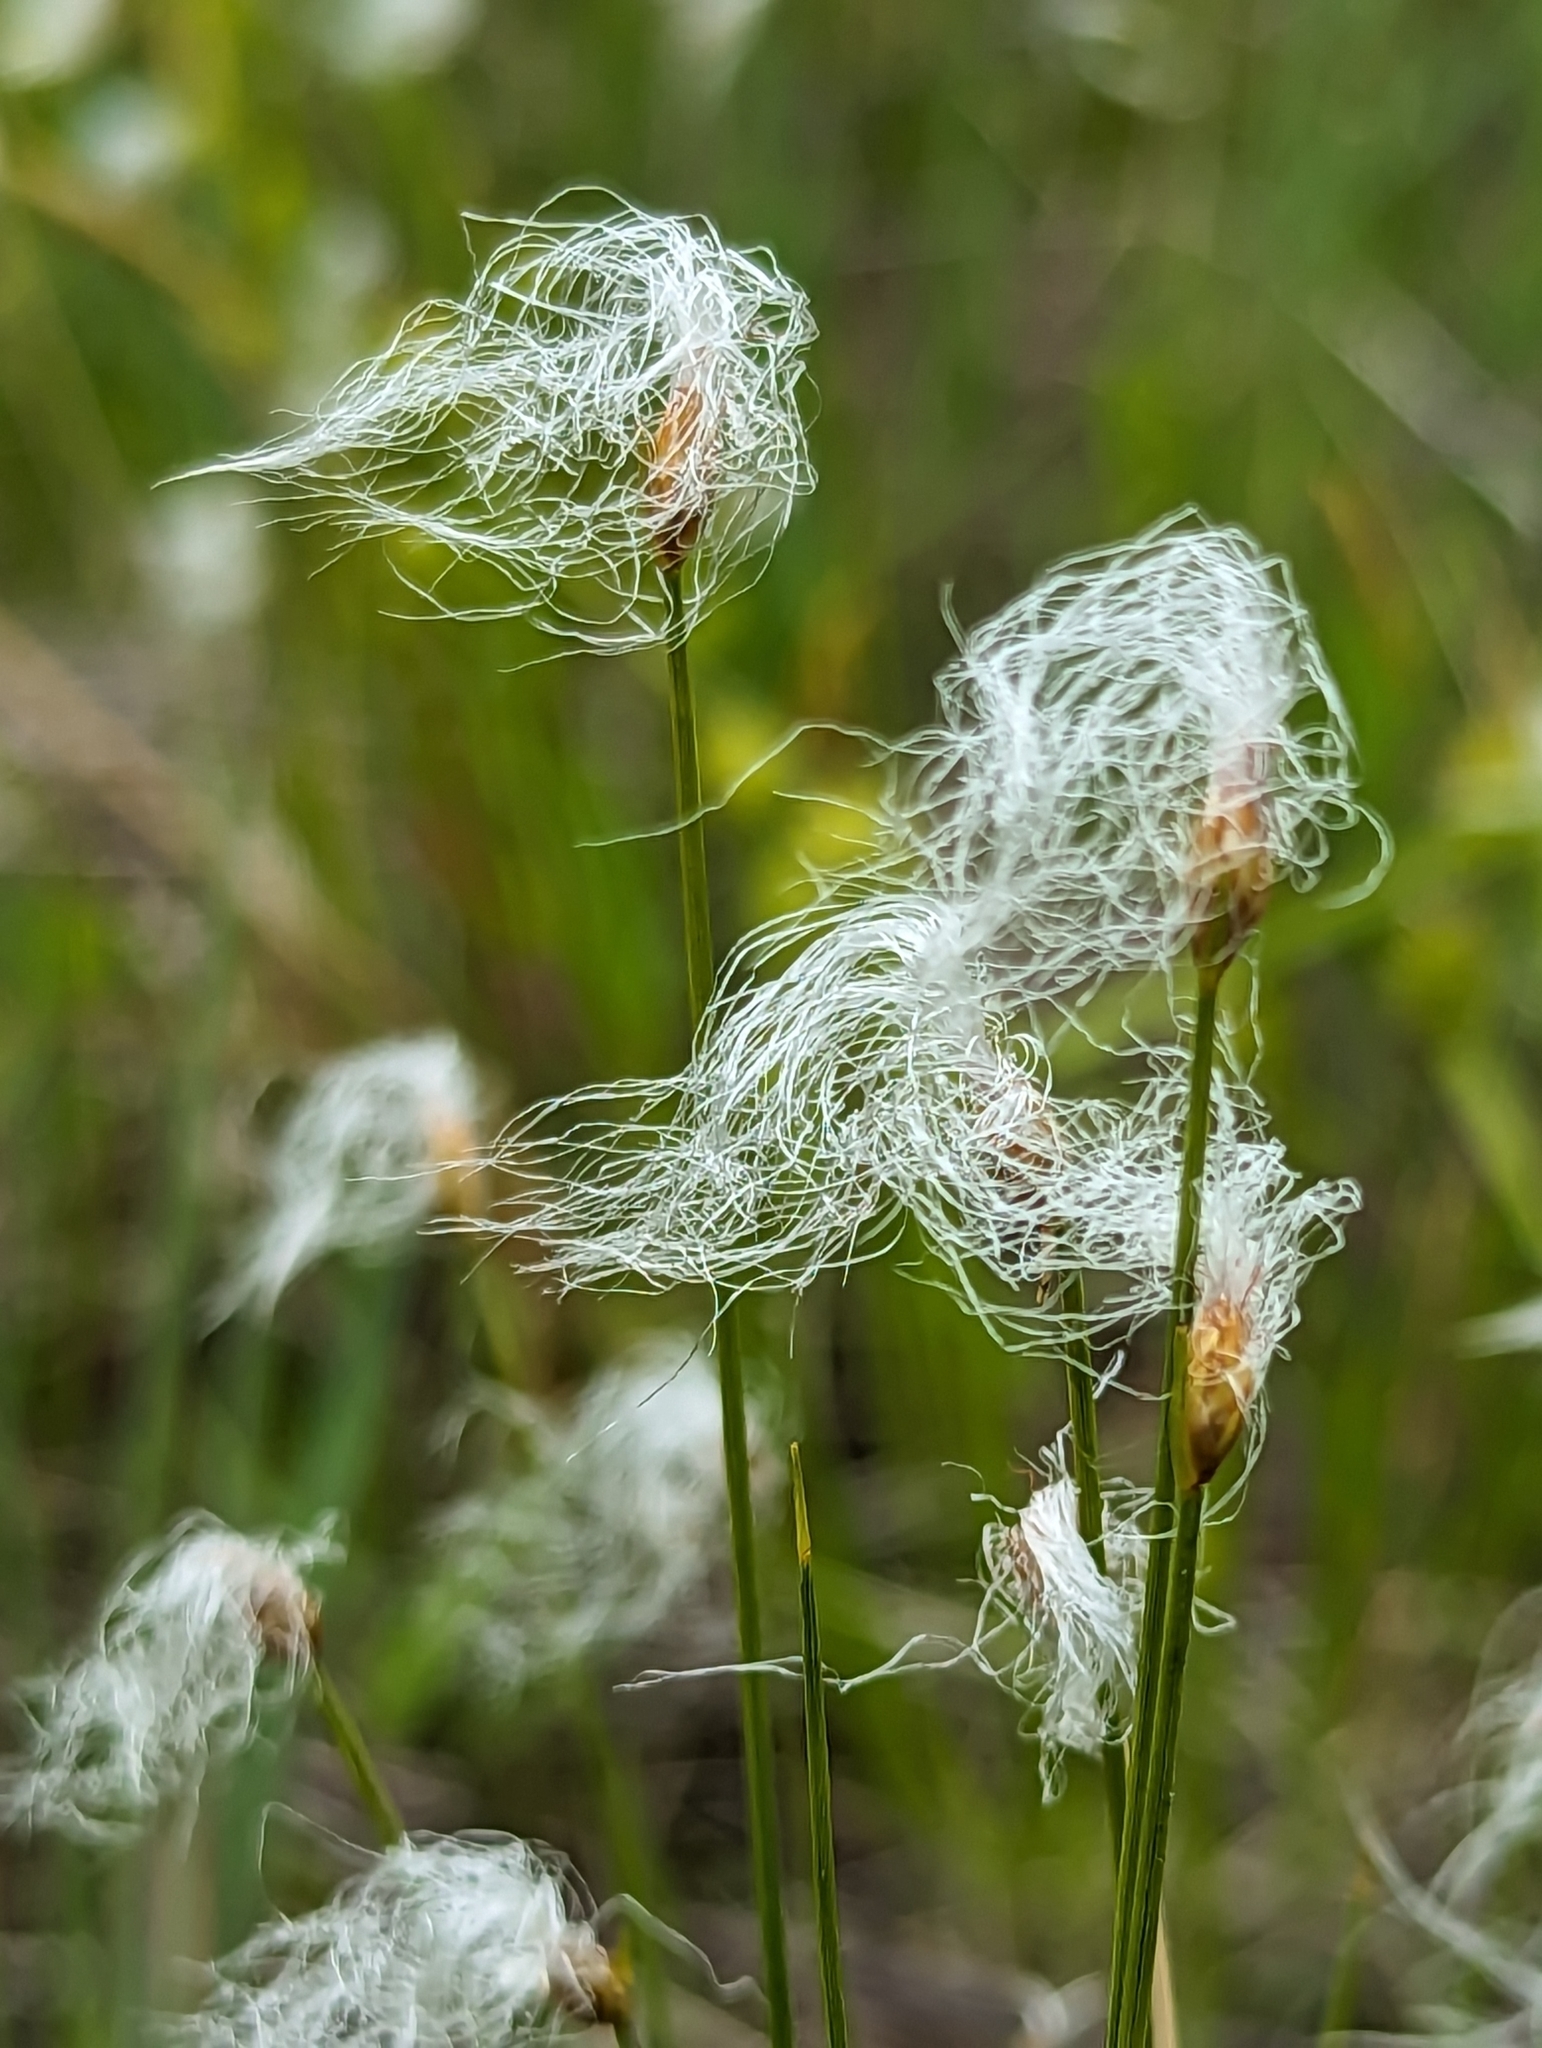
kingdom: Plantae
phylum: Tracheophyta
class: Liliopsida
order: Poales
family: Cyperaceae
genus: Trichophorum
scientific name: Trichophorum alpinum
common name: Alpine bulrush
